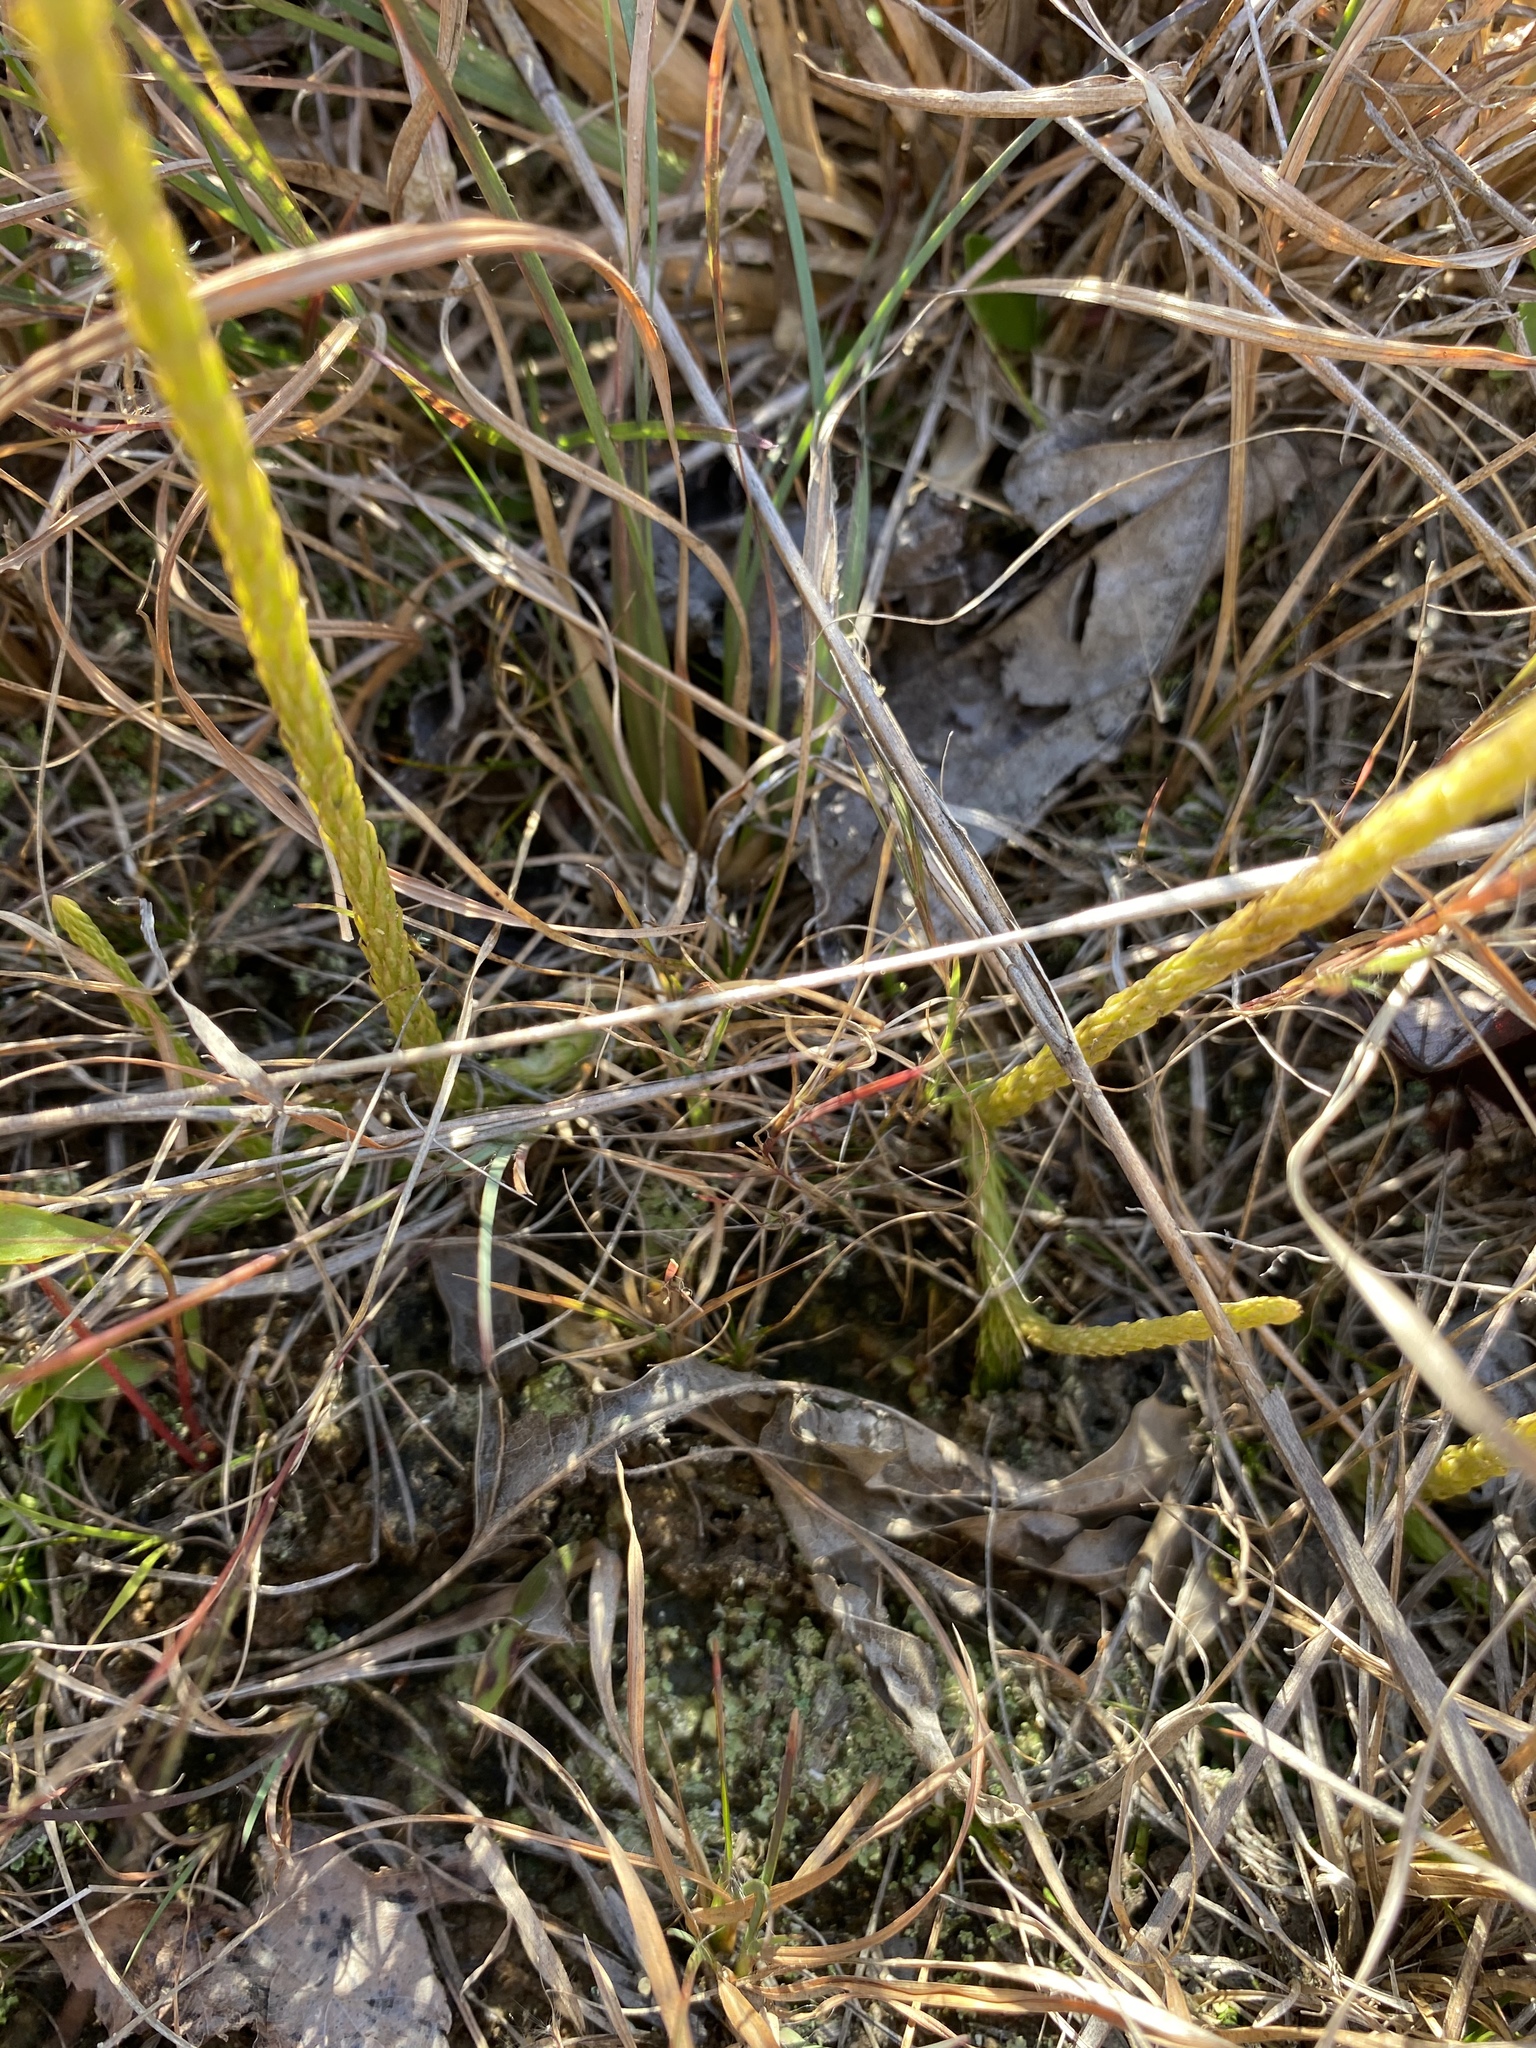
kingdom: Plantae
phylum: Tracheophyta
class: Lycopodiopsida
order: Lycopodiales
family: Lycopodiaceae
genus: Lycopodiella
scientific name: Lycopodiella appressa
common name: Appressed bog clubmoss
